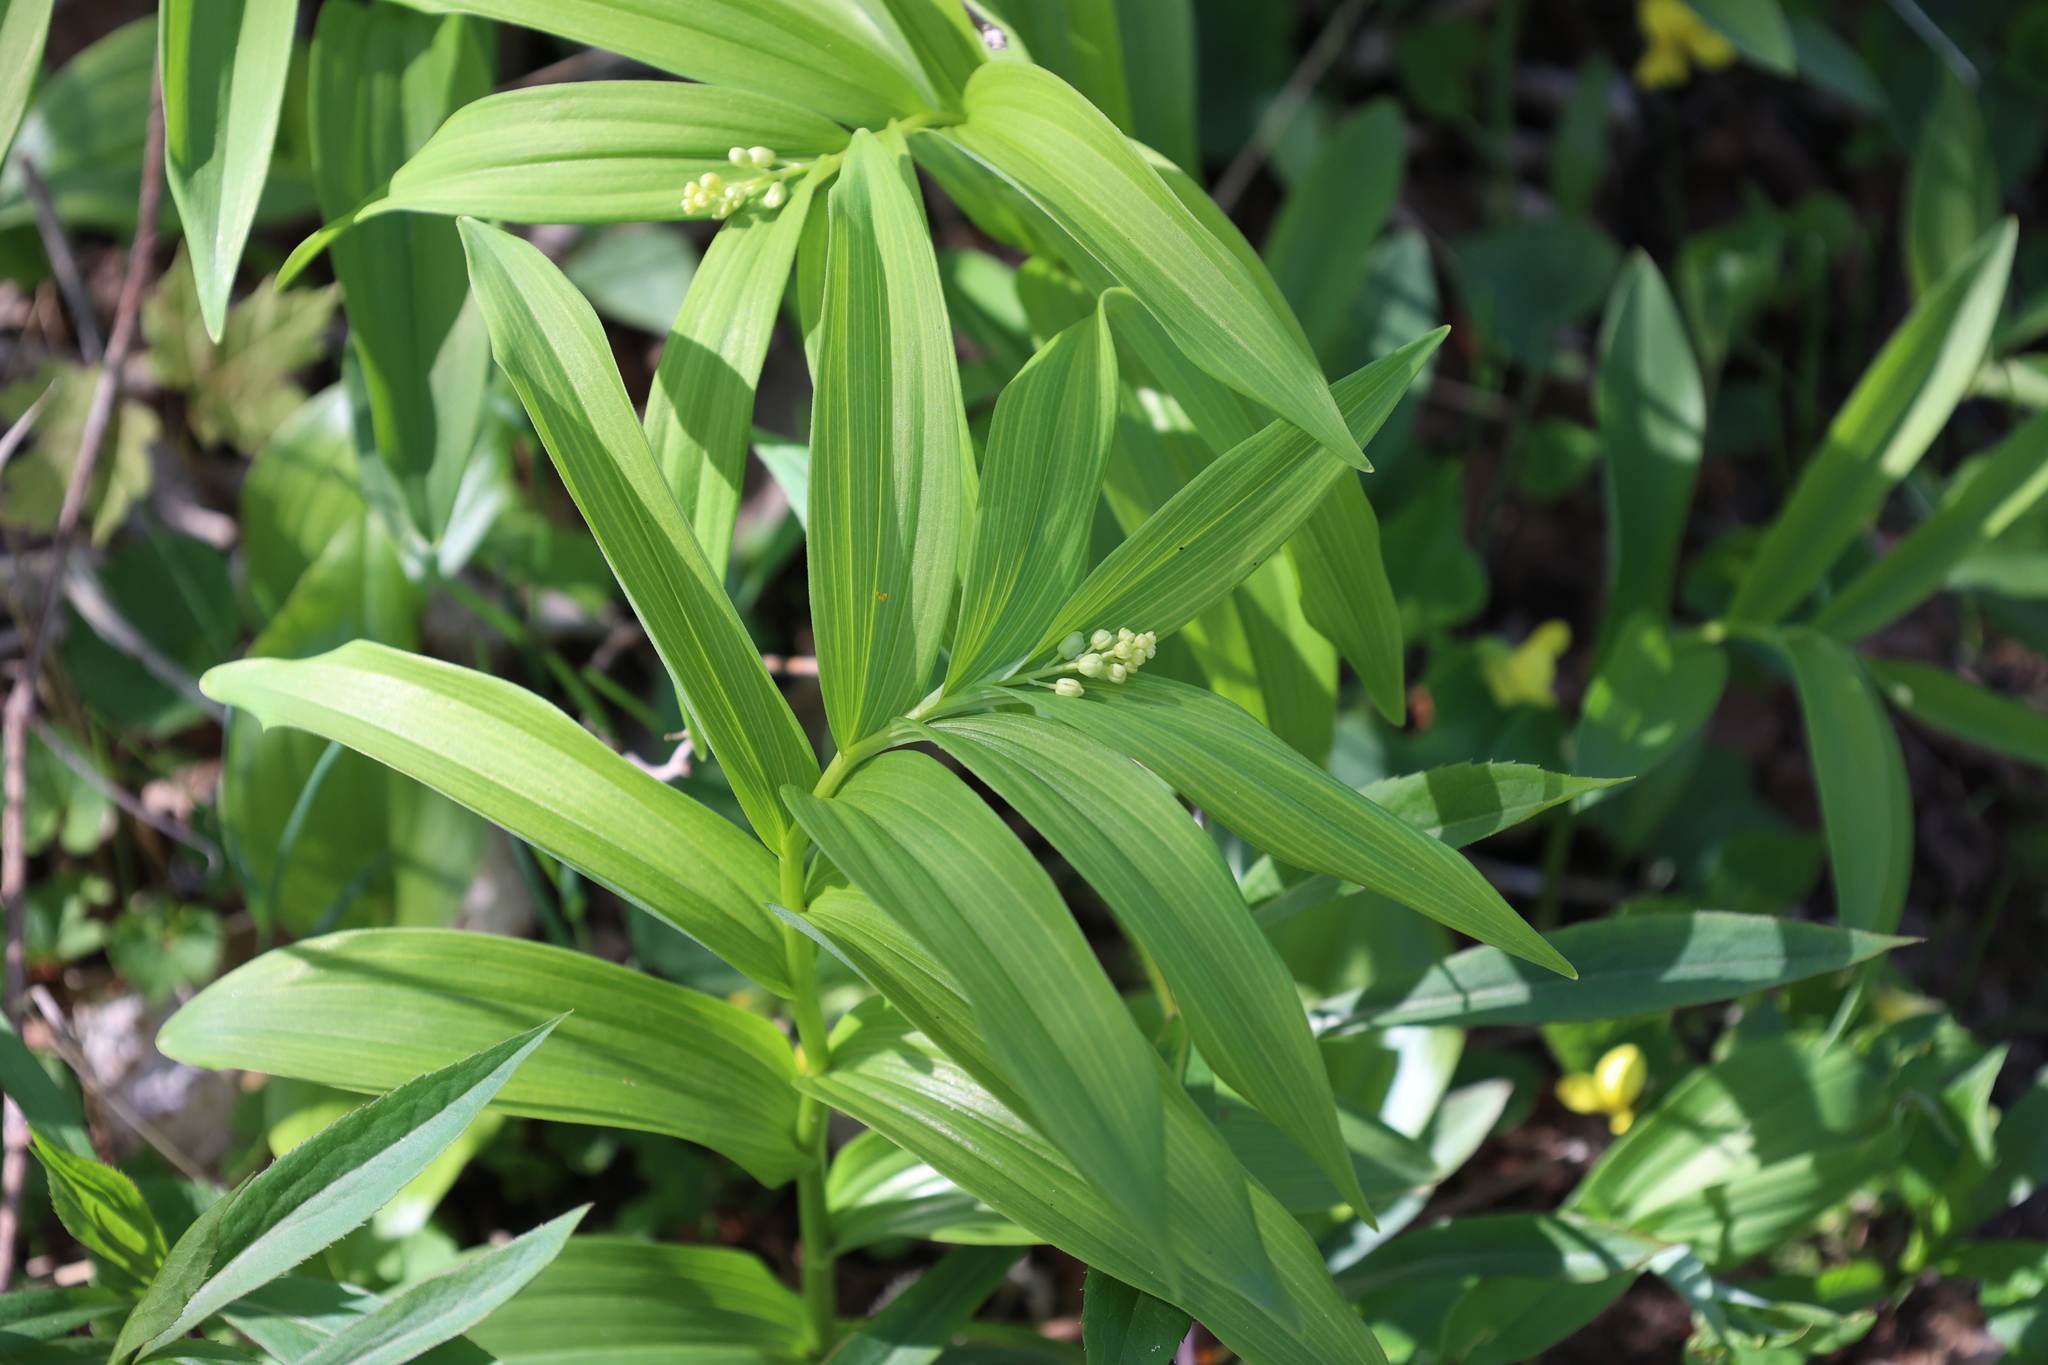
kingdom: Plantae
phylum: Tracheophyta
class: Liliopsida
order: Asparagales
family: Asparagaceae
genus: Maianthemum
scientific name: Maianthemum stellatum
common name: Little false solomon's seal
